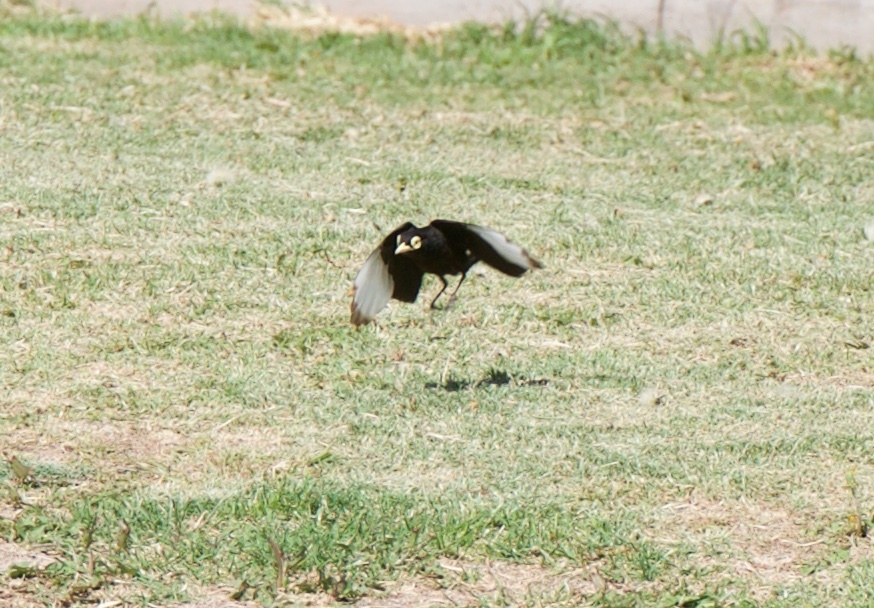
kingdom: Animalia
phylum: Chordata
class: Aves
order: Passeriformes
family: Tyrannidae
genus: Hymenops
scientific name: Hymenops perspicillatus
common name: Spectacled tyrant
